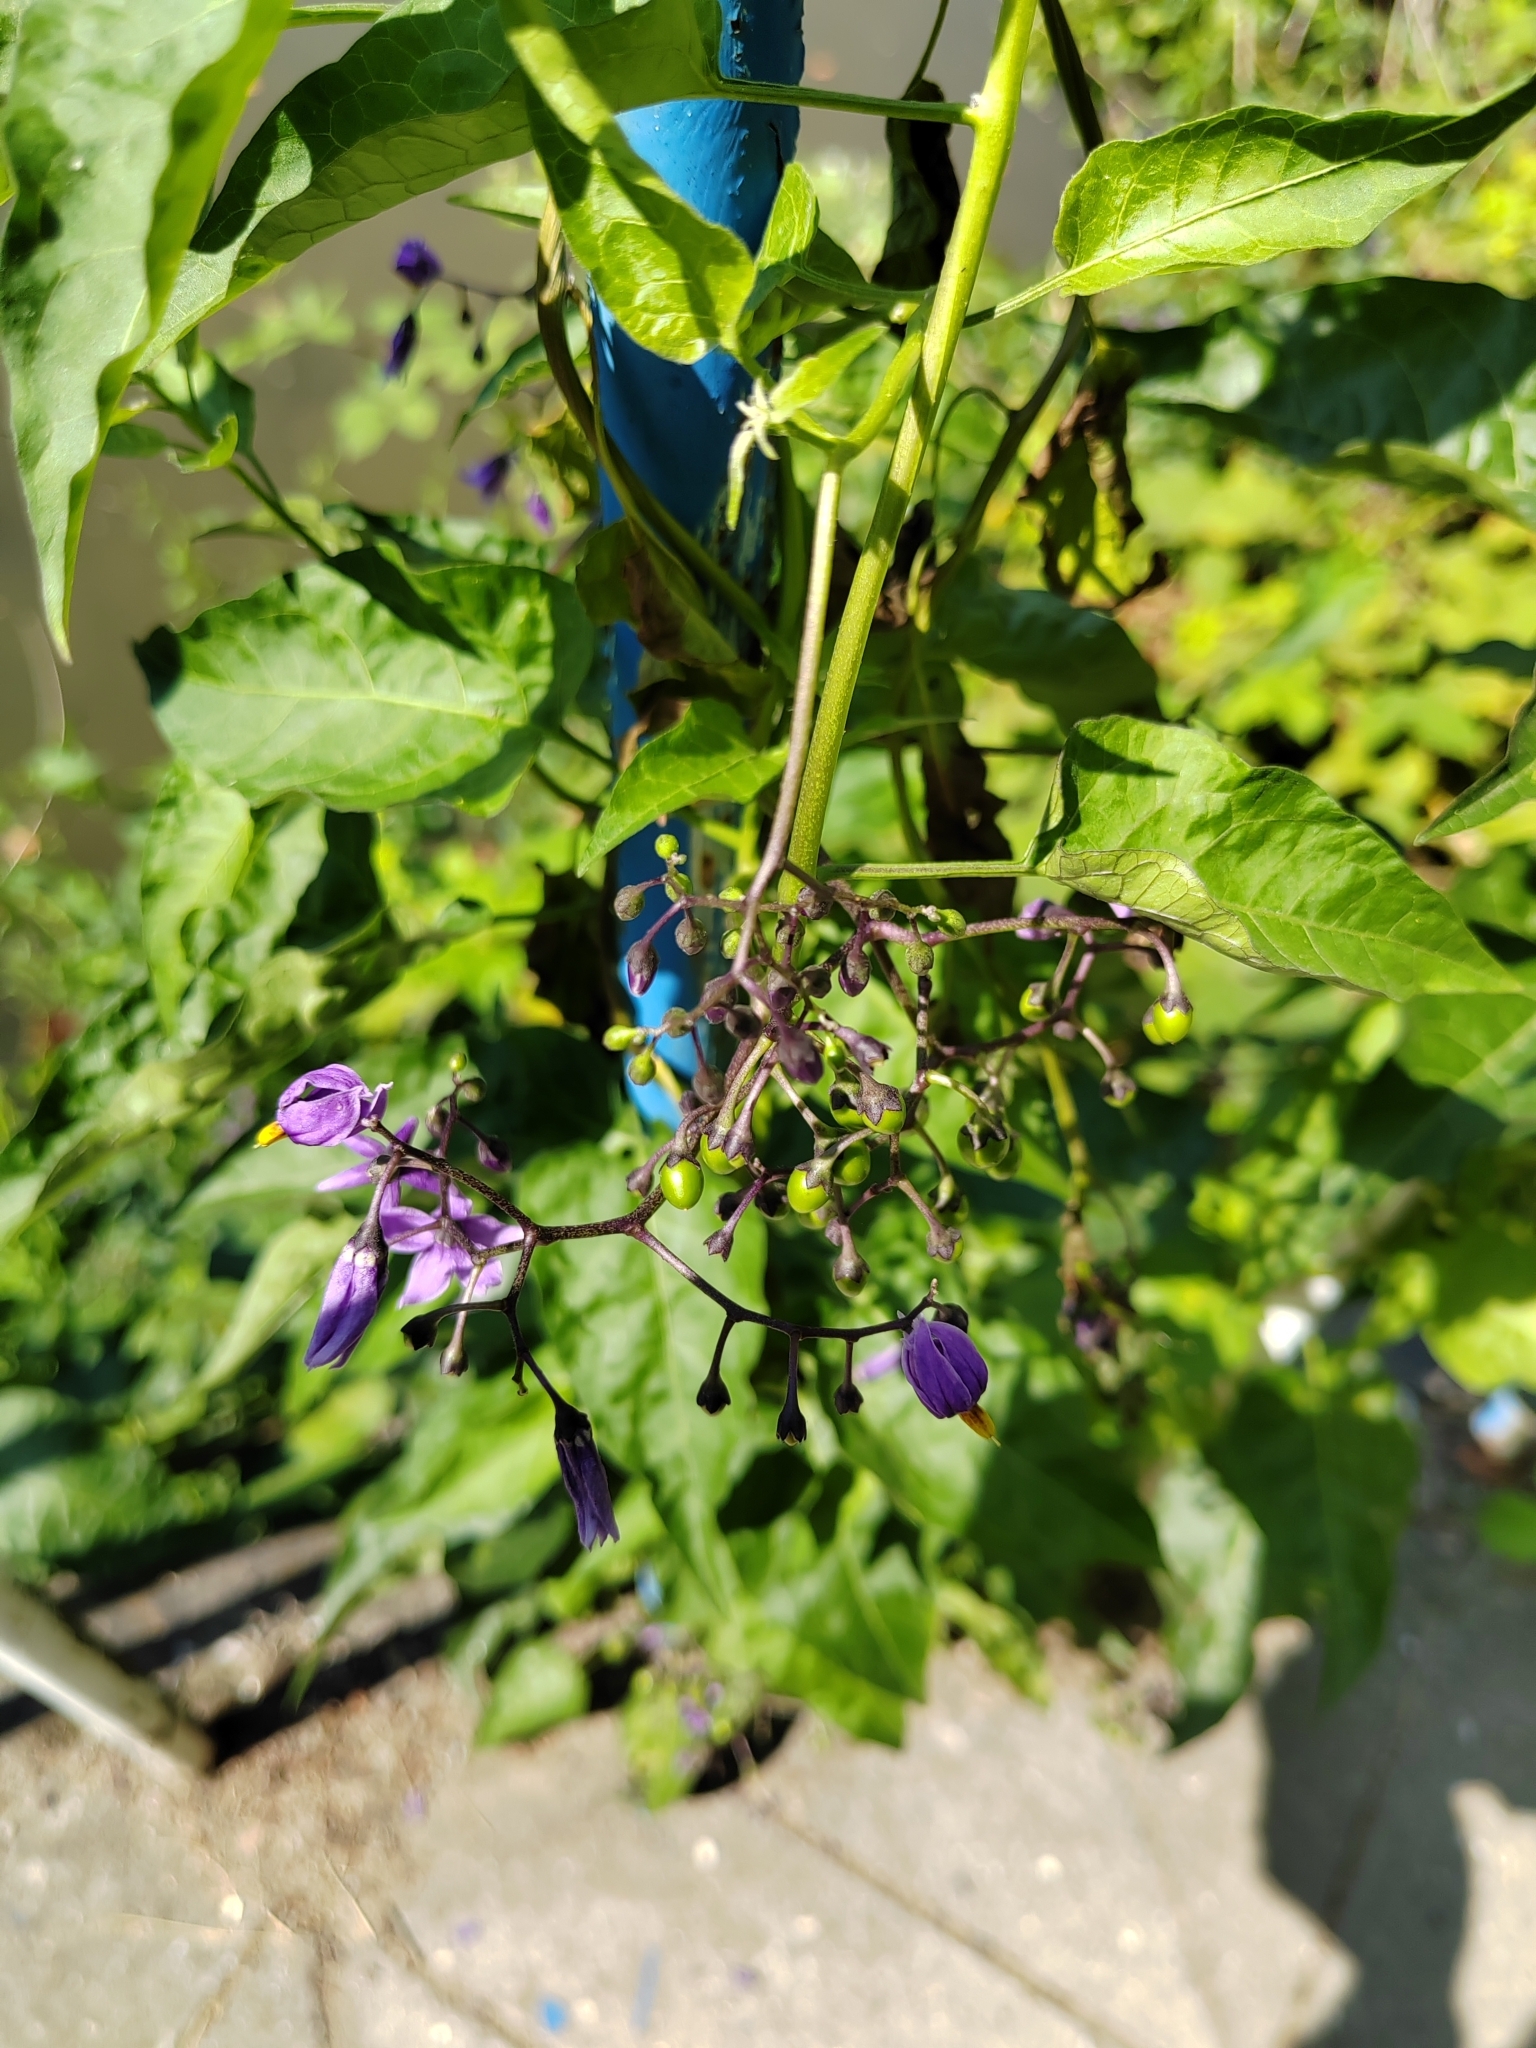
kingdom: Plantae
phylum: Tracheophyta
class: Magnoliopsida
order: Solanales
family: Solanaceae
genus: Solanum
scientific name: Solanum dulcamara
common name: Climbing nightshade
